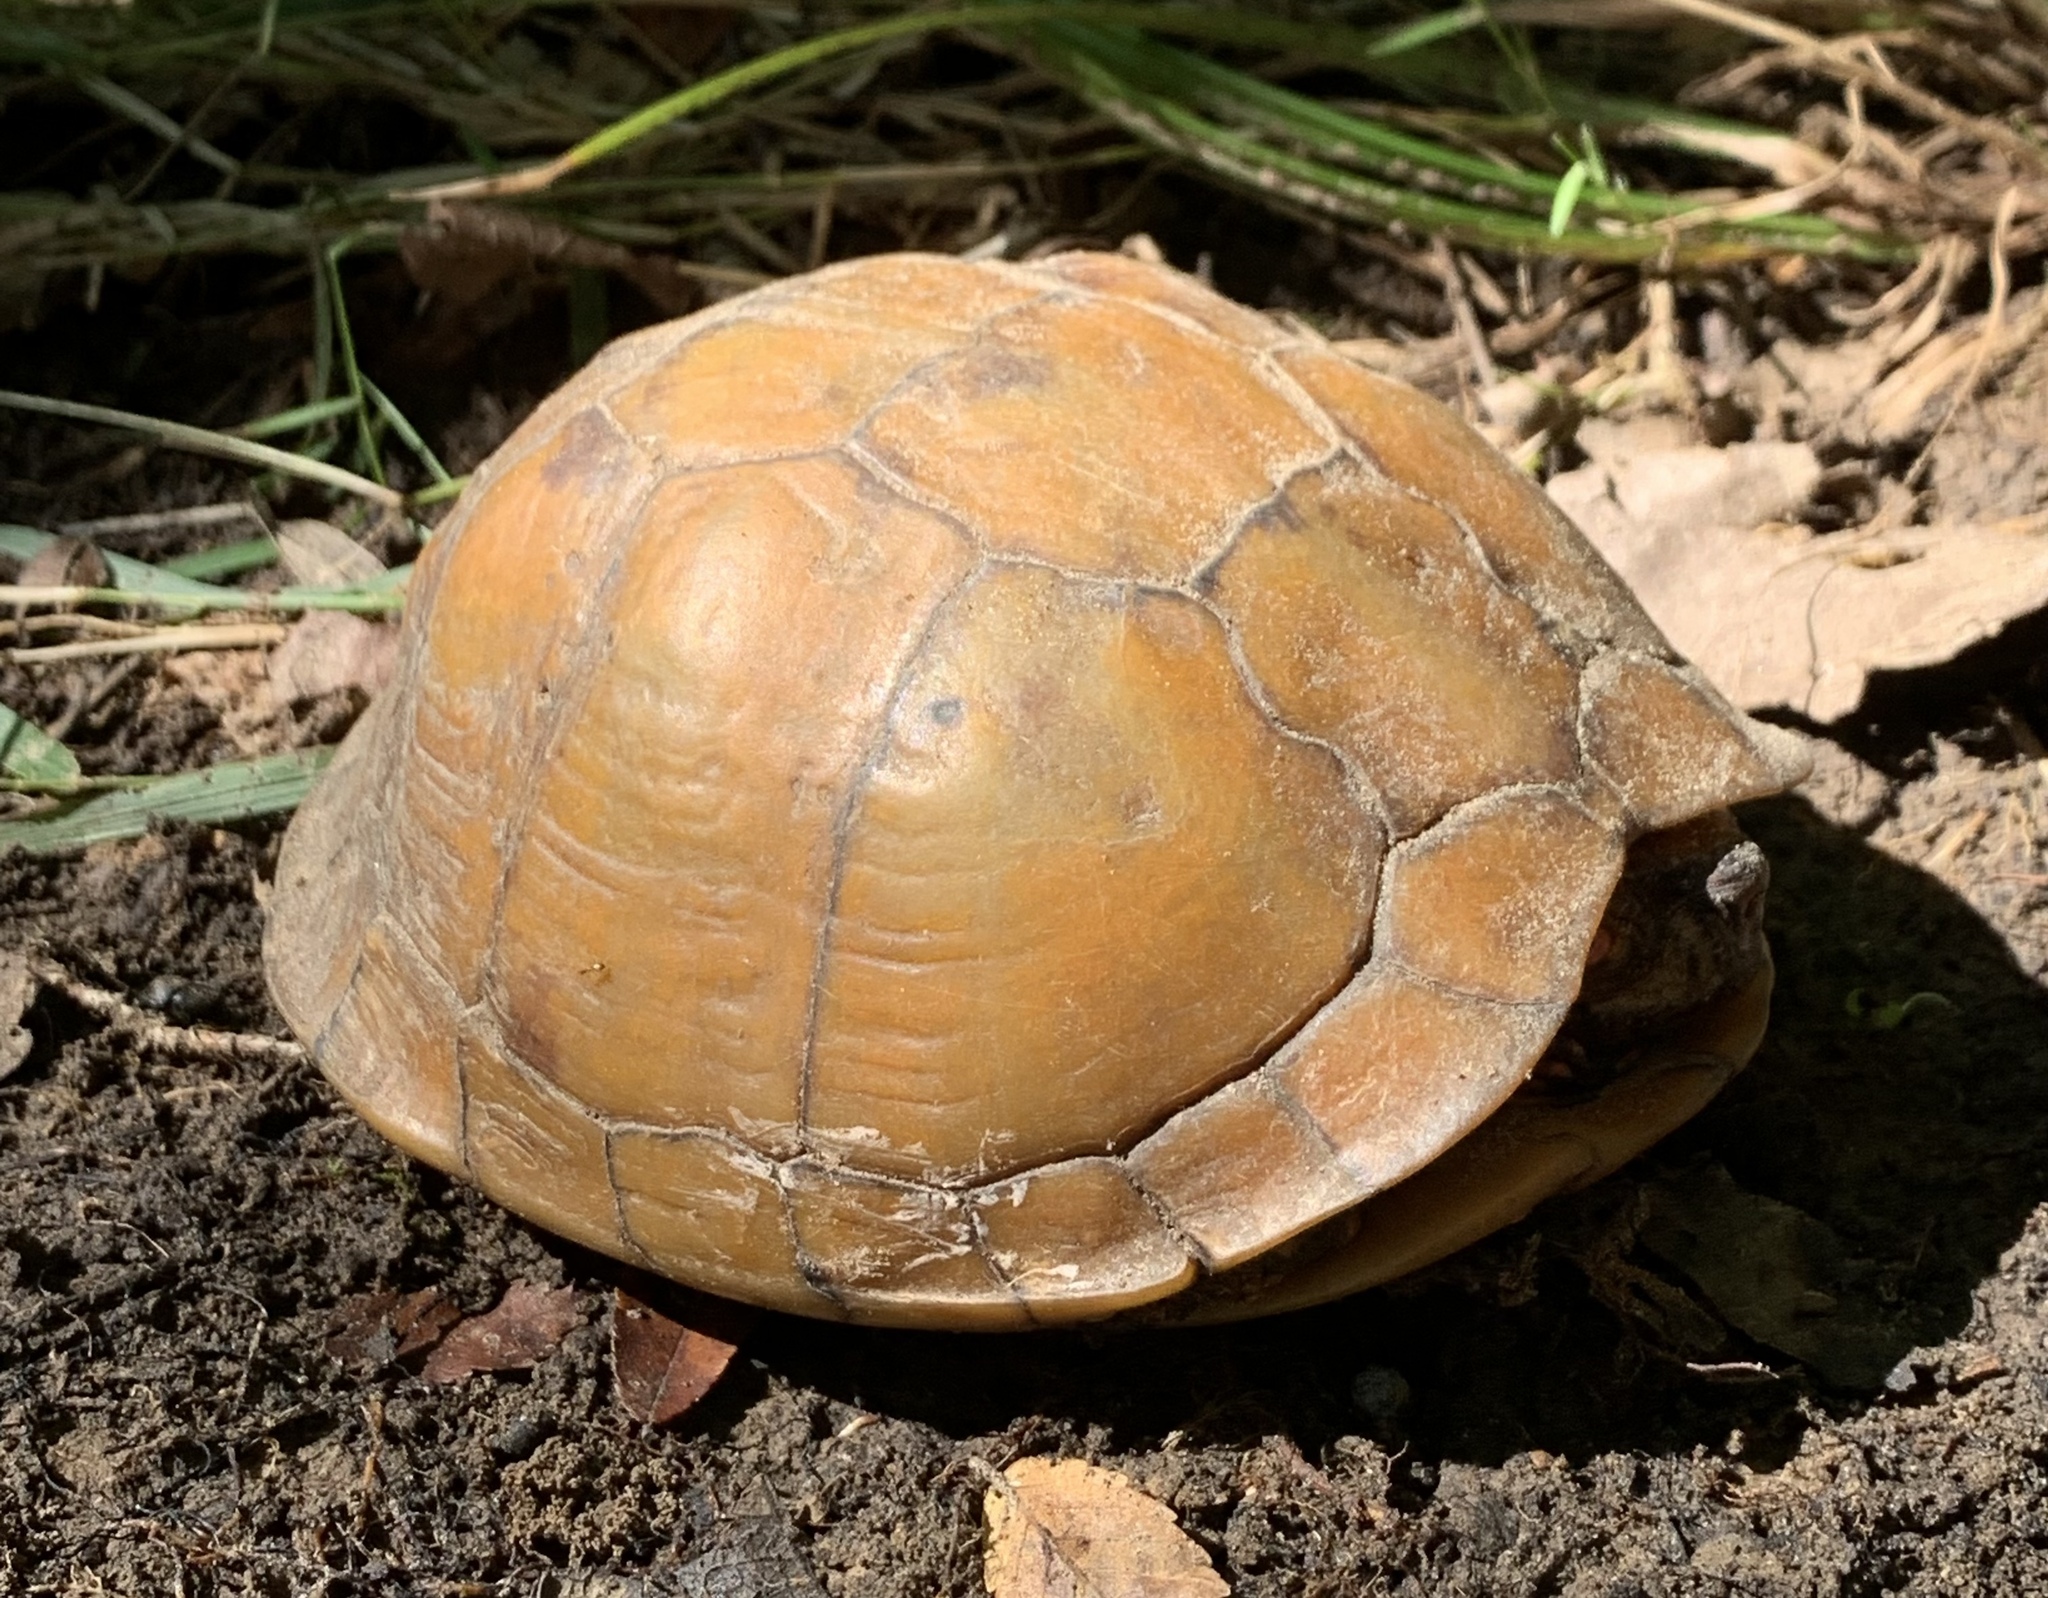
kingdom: Animalia
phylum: Chordata
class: Testudines
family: Emydidae
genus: Terrapene
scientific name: Terrapene carolina
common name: Common box turtle
